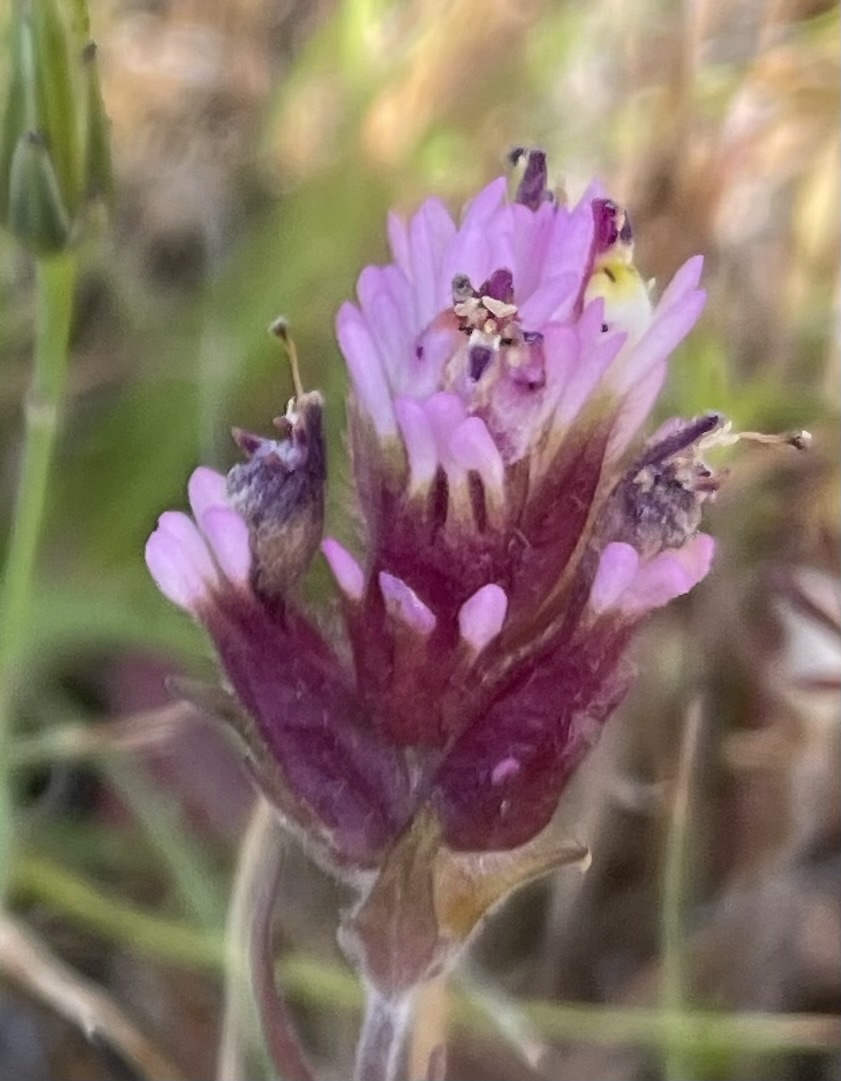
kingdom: Plantae
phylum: Tracheophyta
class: Magnoliopsida
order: Lamiales
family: Orobanchaceae
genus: Castilleja
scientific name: Castilleja densiflora
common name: Dense-flower indian paintbrush
